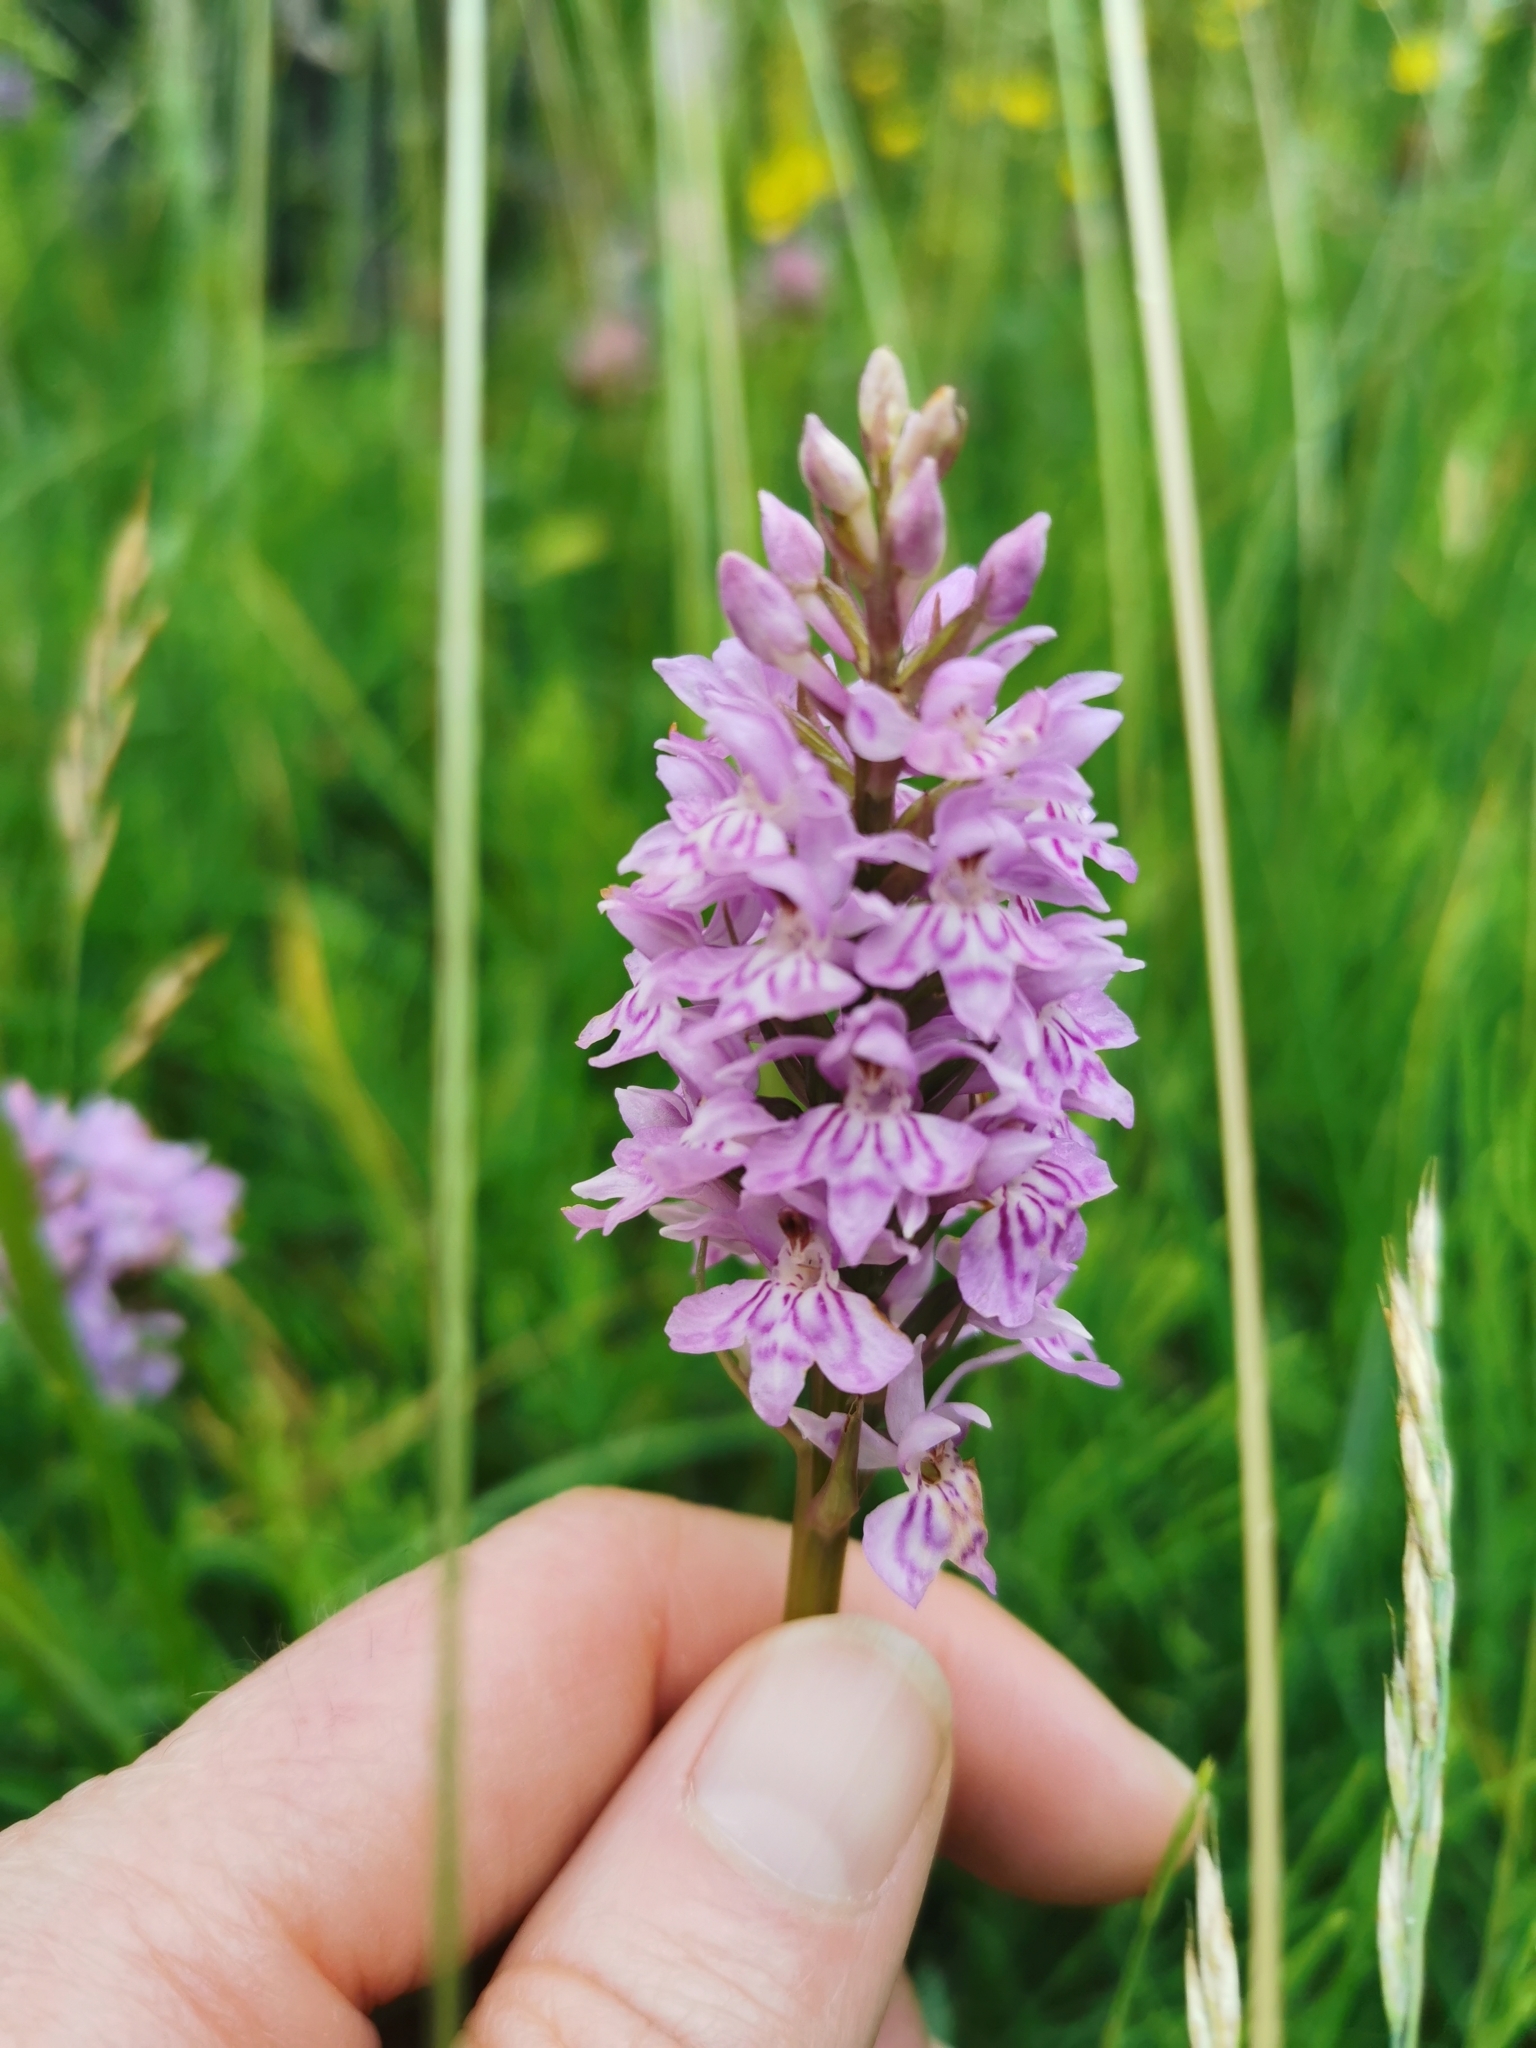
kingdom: Plantae
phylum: Tracheophyta
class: Liliopsida
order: Asparagales
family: Orchidaceae
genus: Dactylorhiza
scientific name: Dactylorhiza maculata
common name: Heath spotted-orchid
